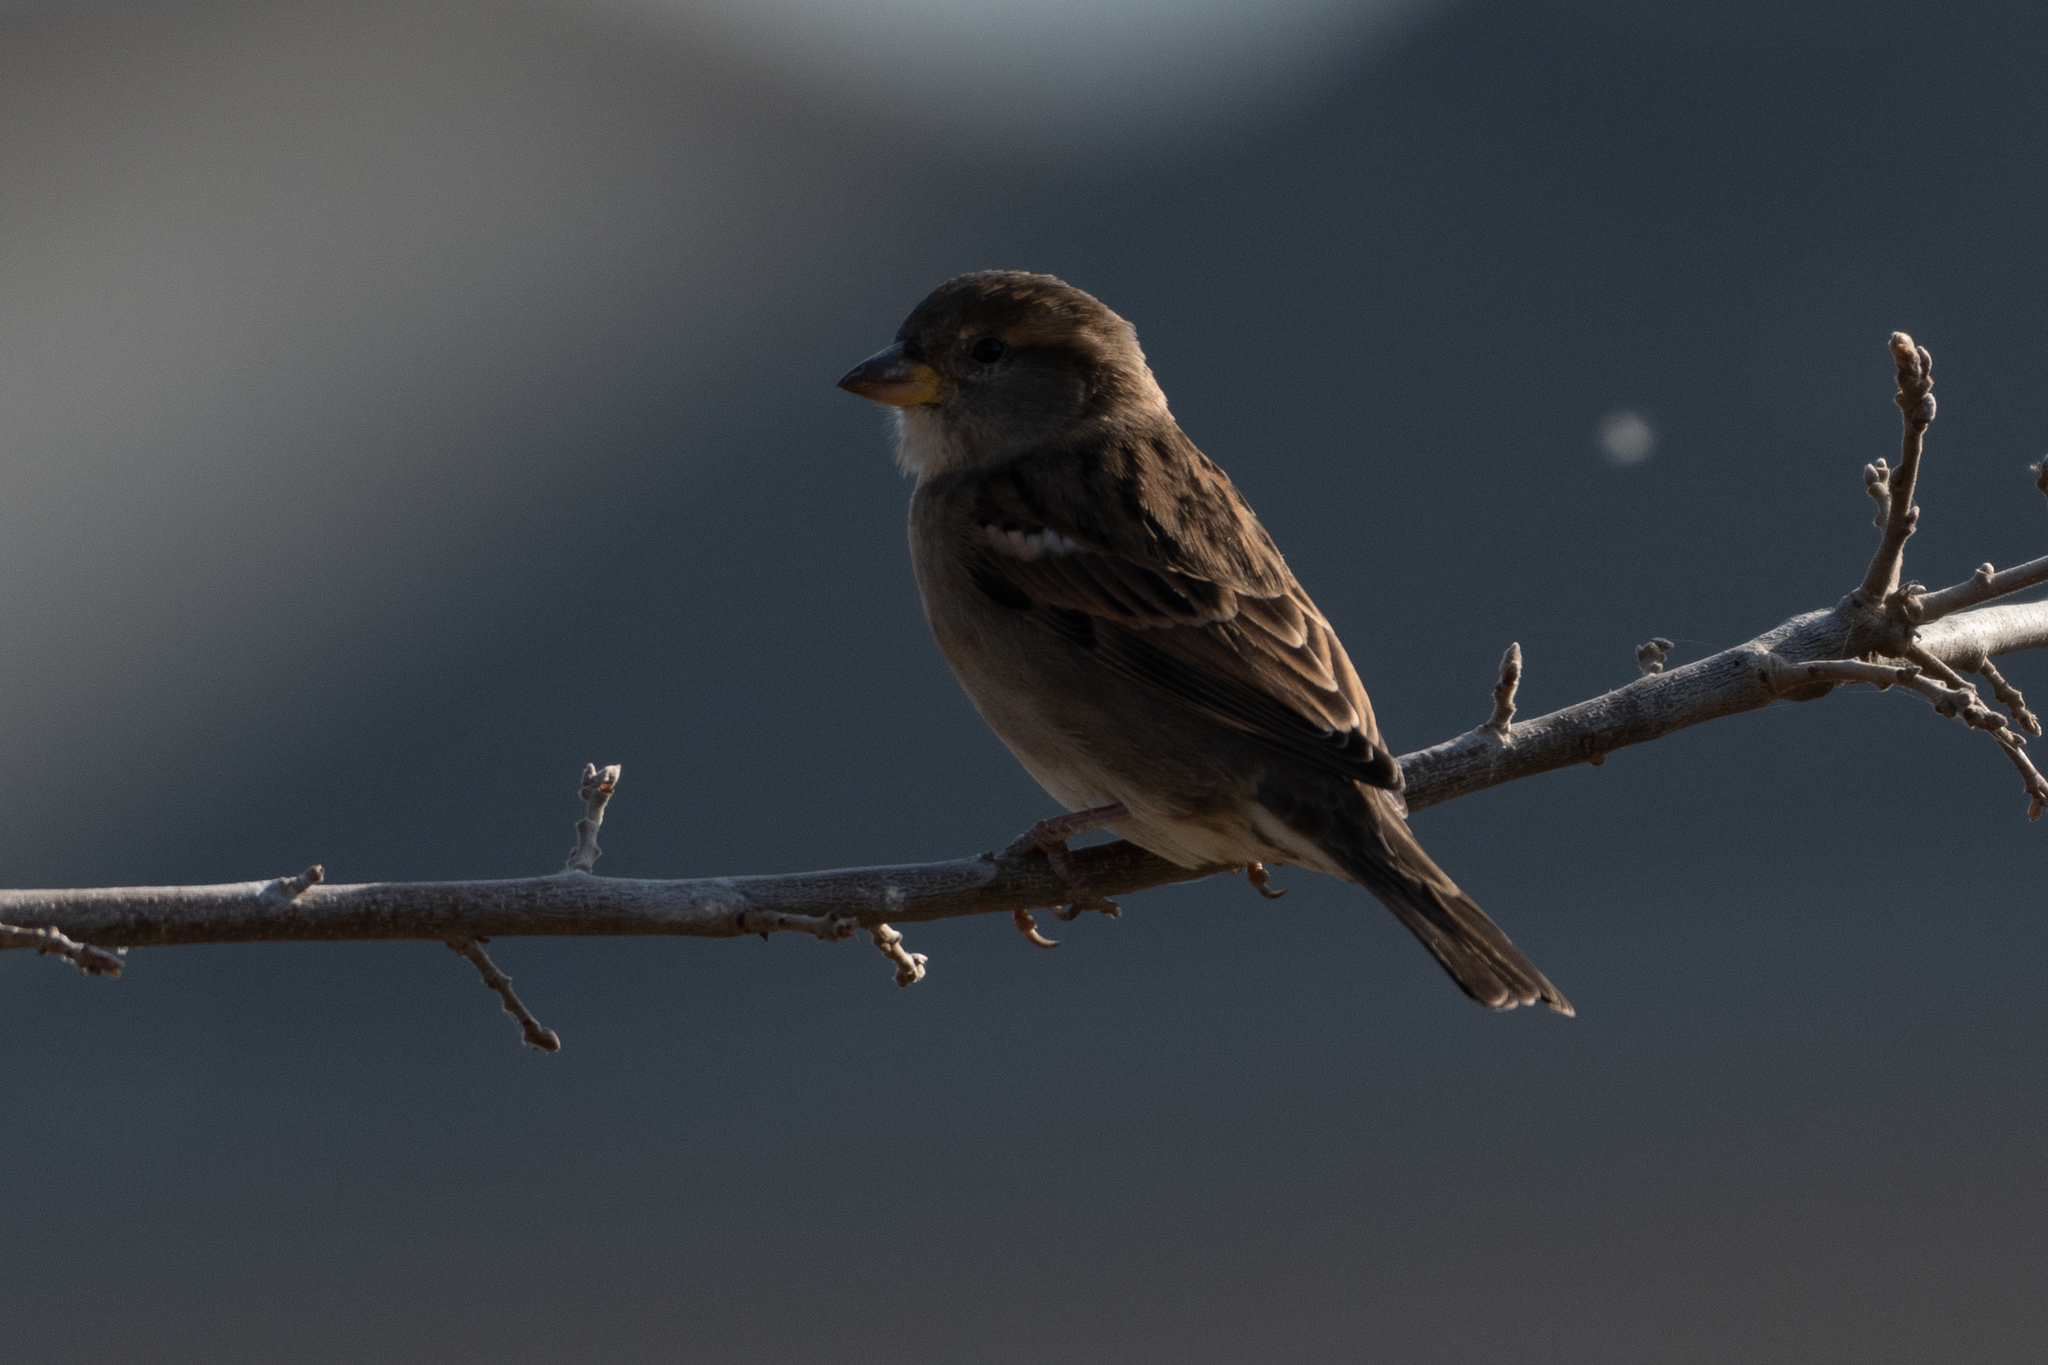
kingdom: Animalia
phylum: Chordata
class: Aves
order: Passeriformes
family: Passeridae
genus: Passer
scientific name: Passer domesticus
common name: House sparrow
